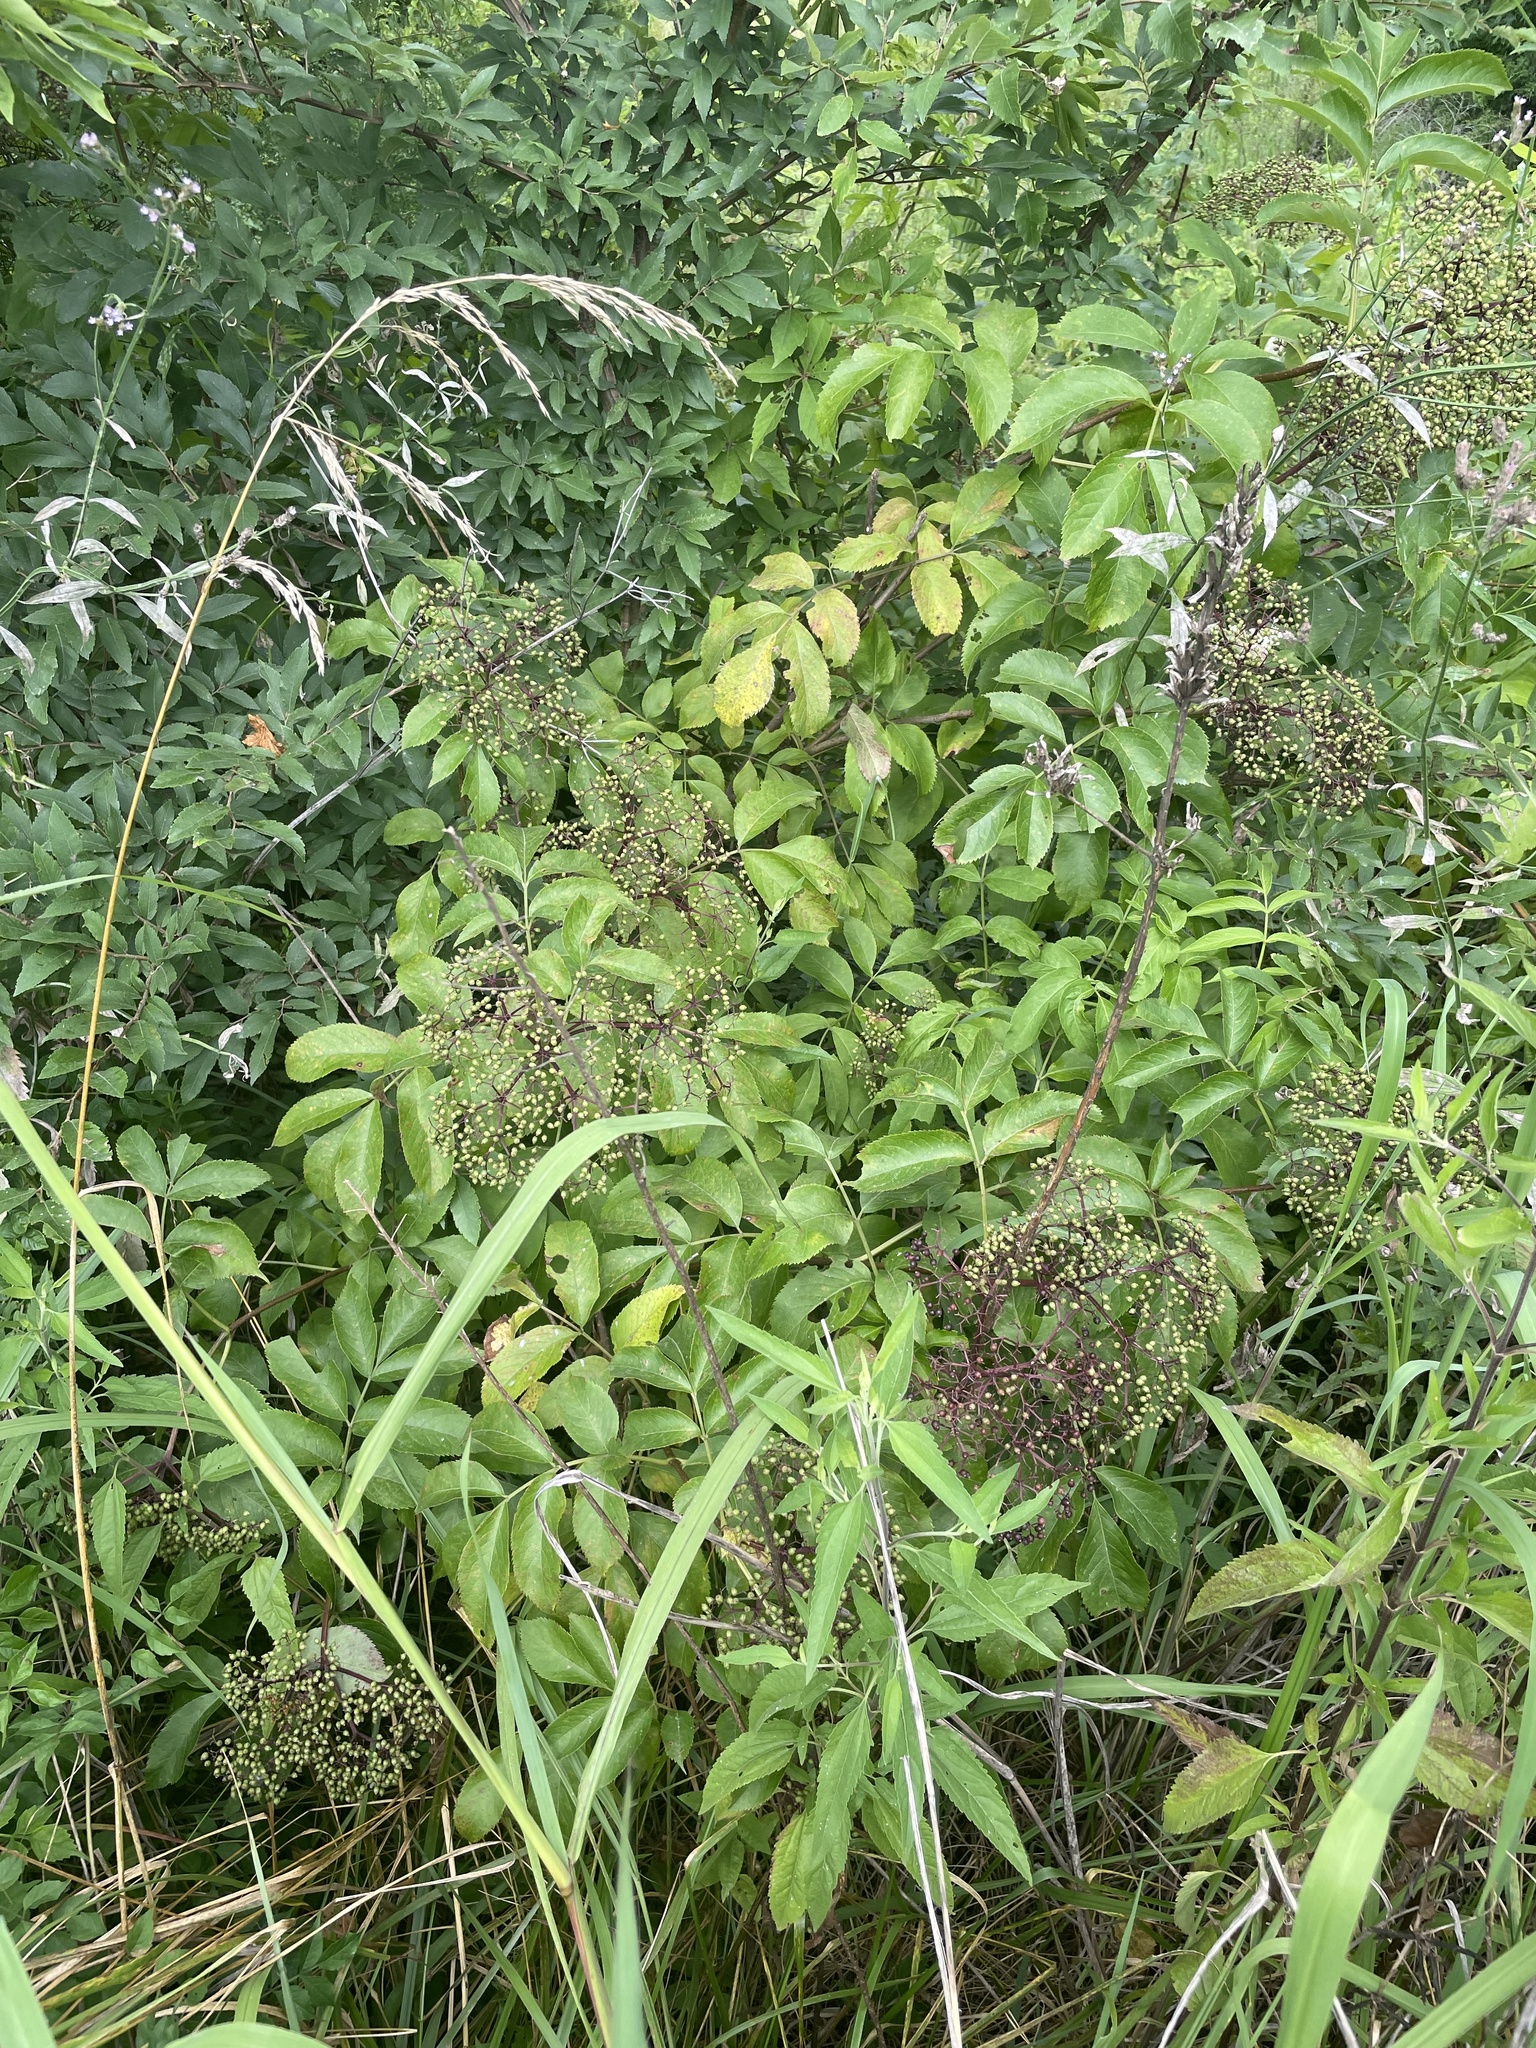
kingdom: Plantae
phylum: Tracheophyta
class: Magnoliopsida
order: Dipsacales
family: Viburnaceae
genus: Sambucus
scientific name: Sambucus canadensis
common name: American elder
